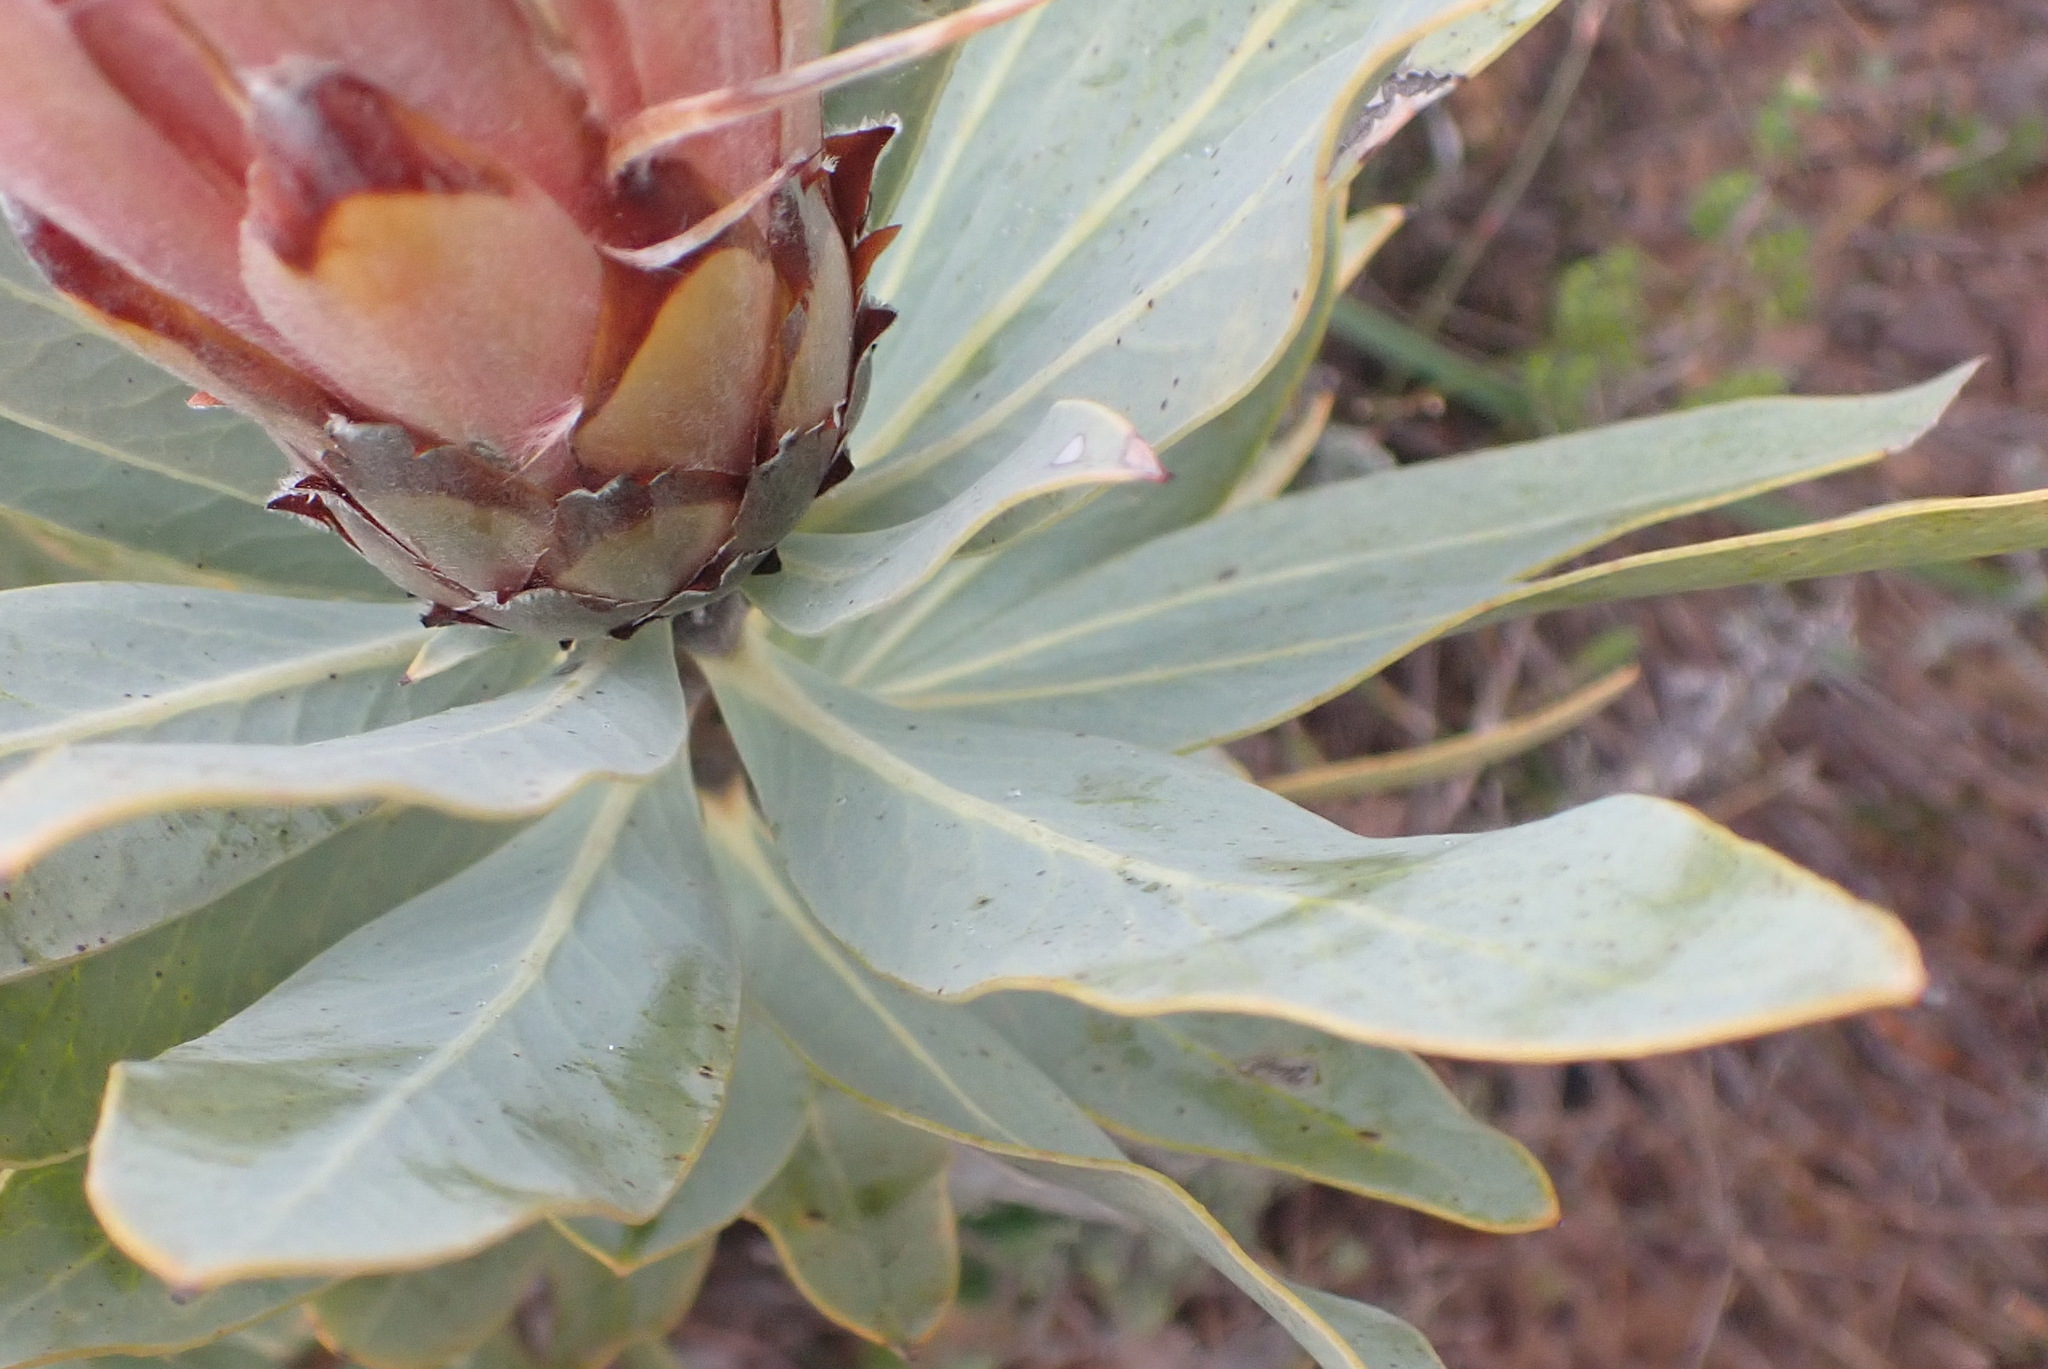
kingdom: Plantae
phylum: Tracheophyta
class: Magnoliopsida
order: Proteales
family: Proteaceae
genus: Protea
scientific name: Protea laurifolia
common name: Grey-leaf sugarbsh
